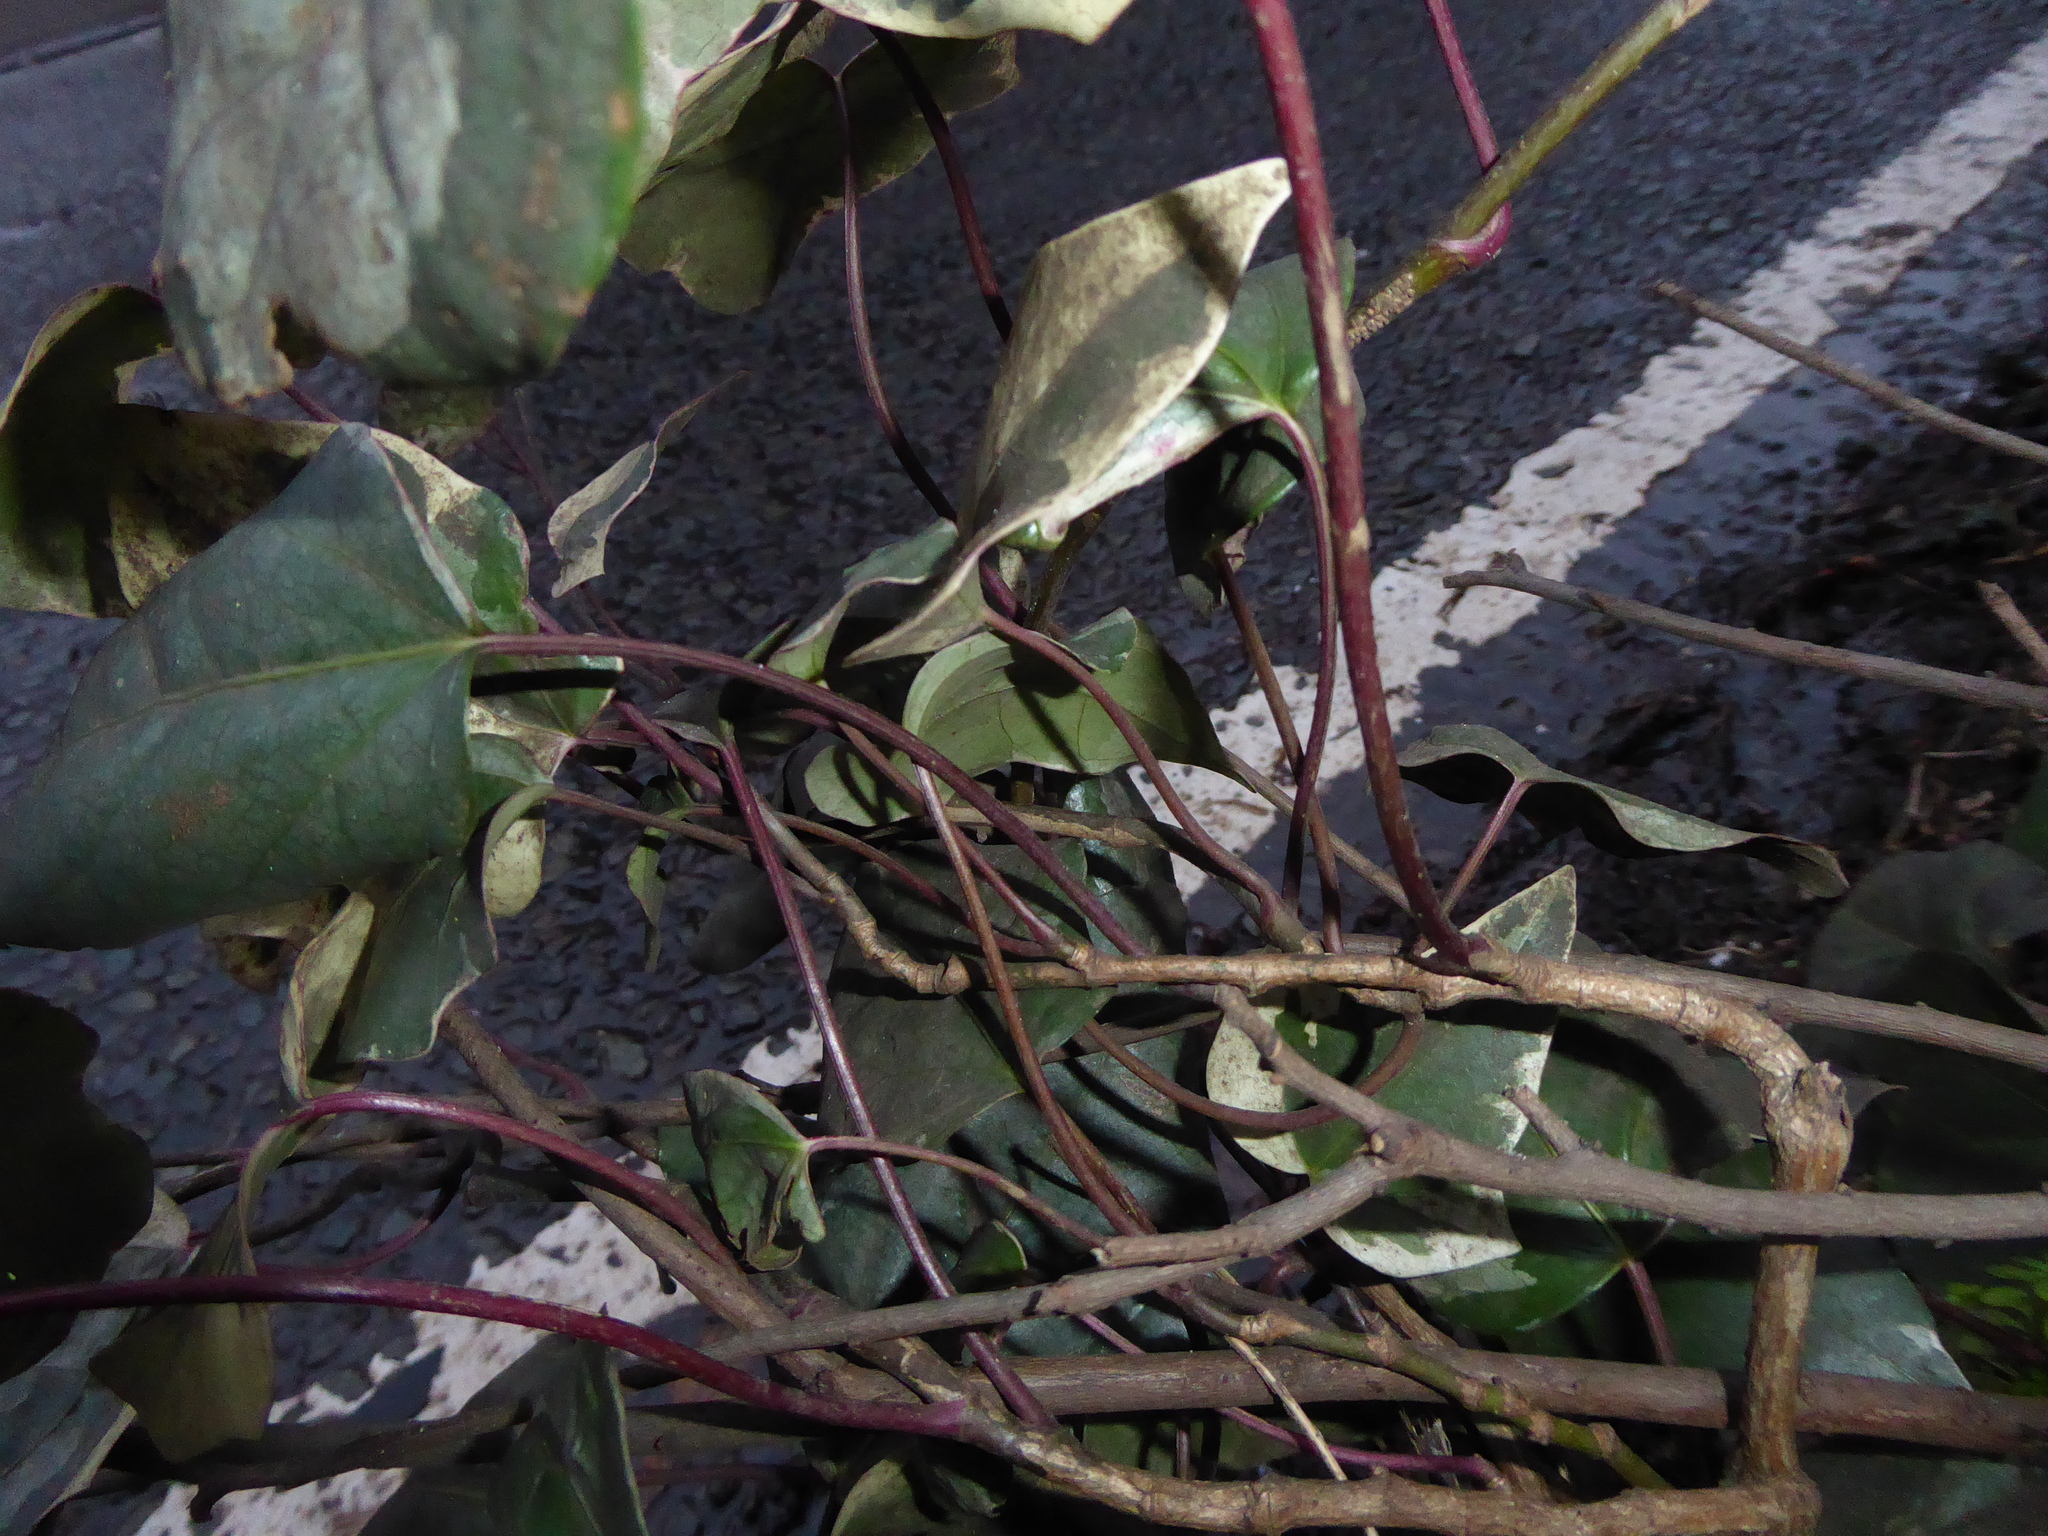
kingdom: Plantae
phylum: Tracheophyta
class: Magnoliopsida
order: Apiales
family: Araliaceae
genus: Hedera
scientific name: Hedera algeriensis
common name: Algerian ivy
